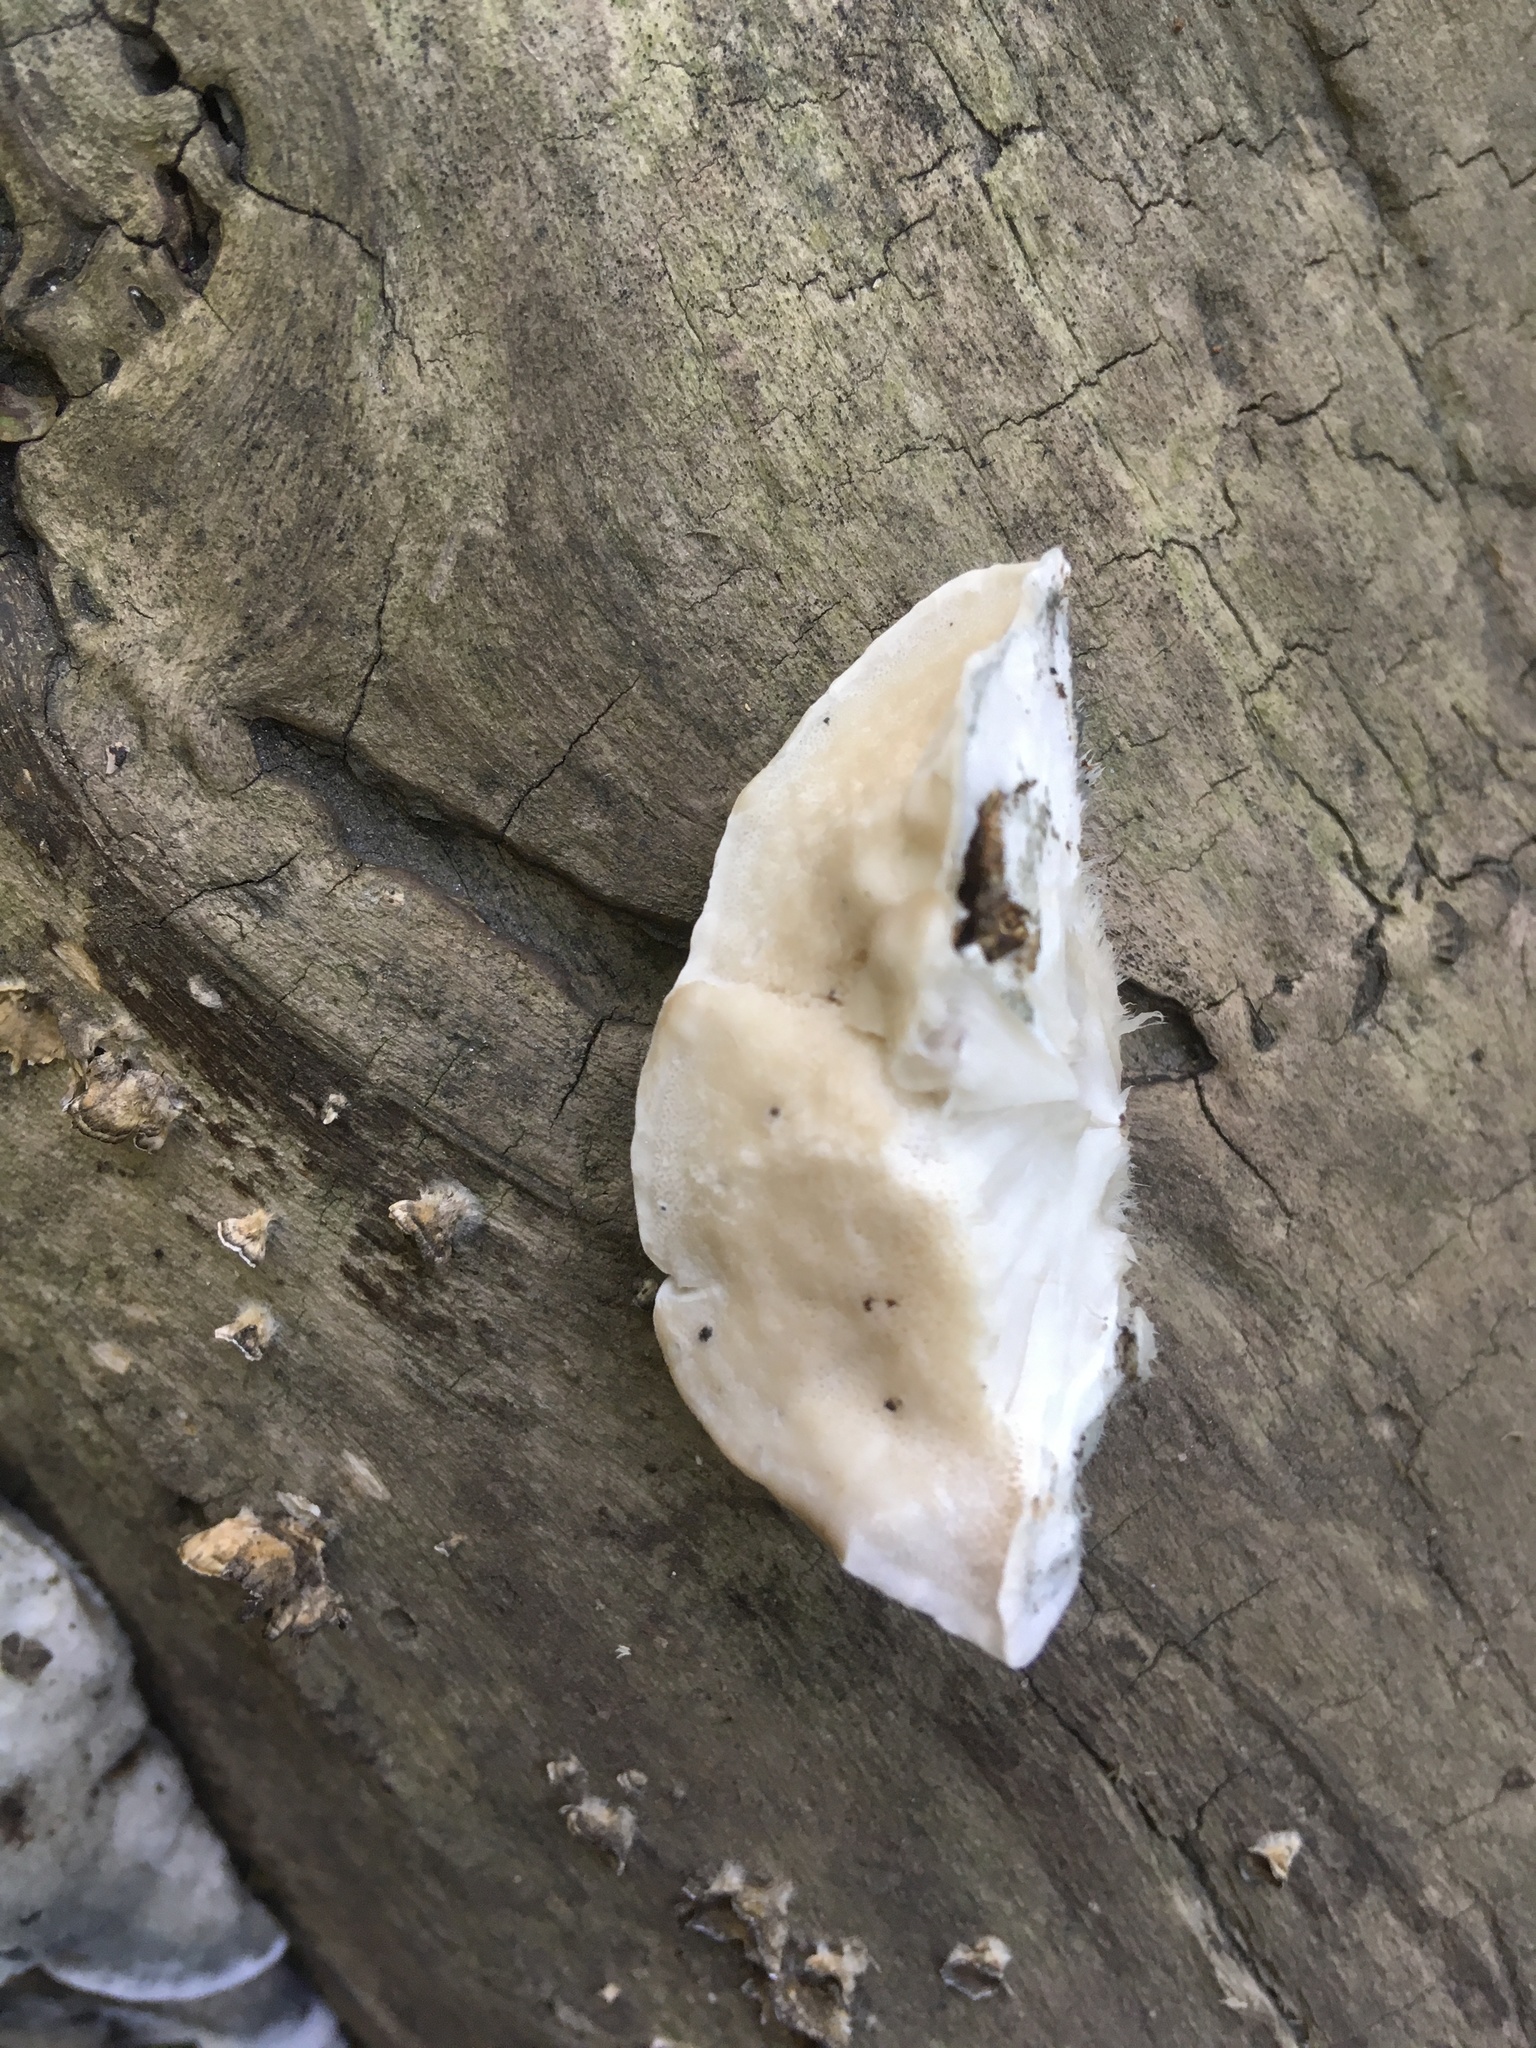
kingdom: Fungi
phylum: Basidiomycota
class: Agaricomycetes
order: Polyporales
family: Incrustoporiaceae
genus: Tyromyces
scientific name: Tyromyces fumidiceps
